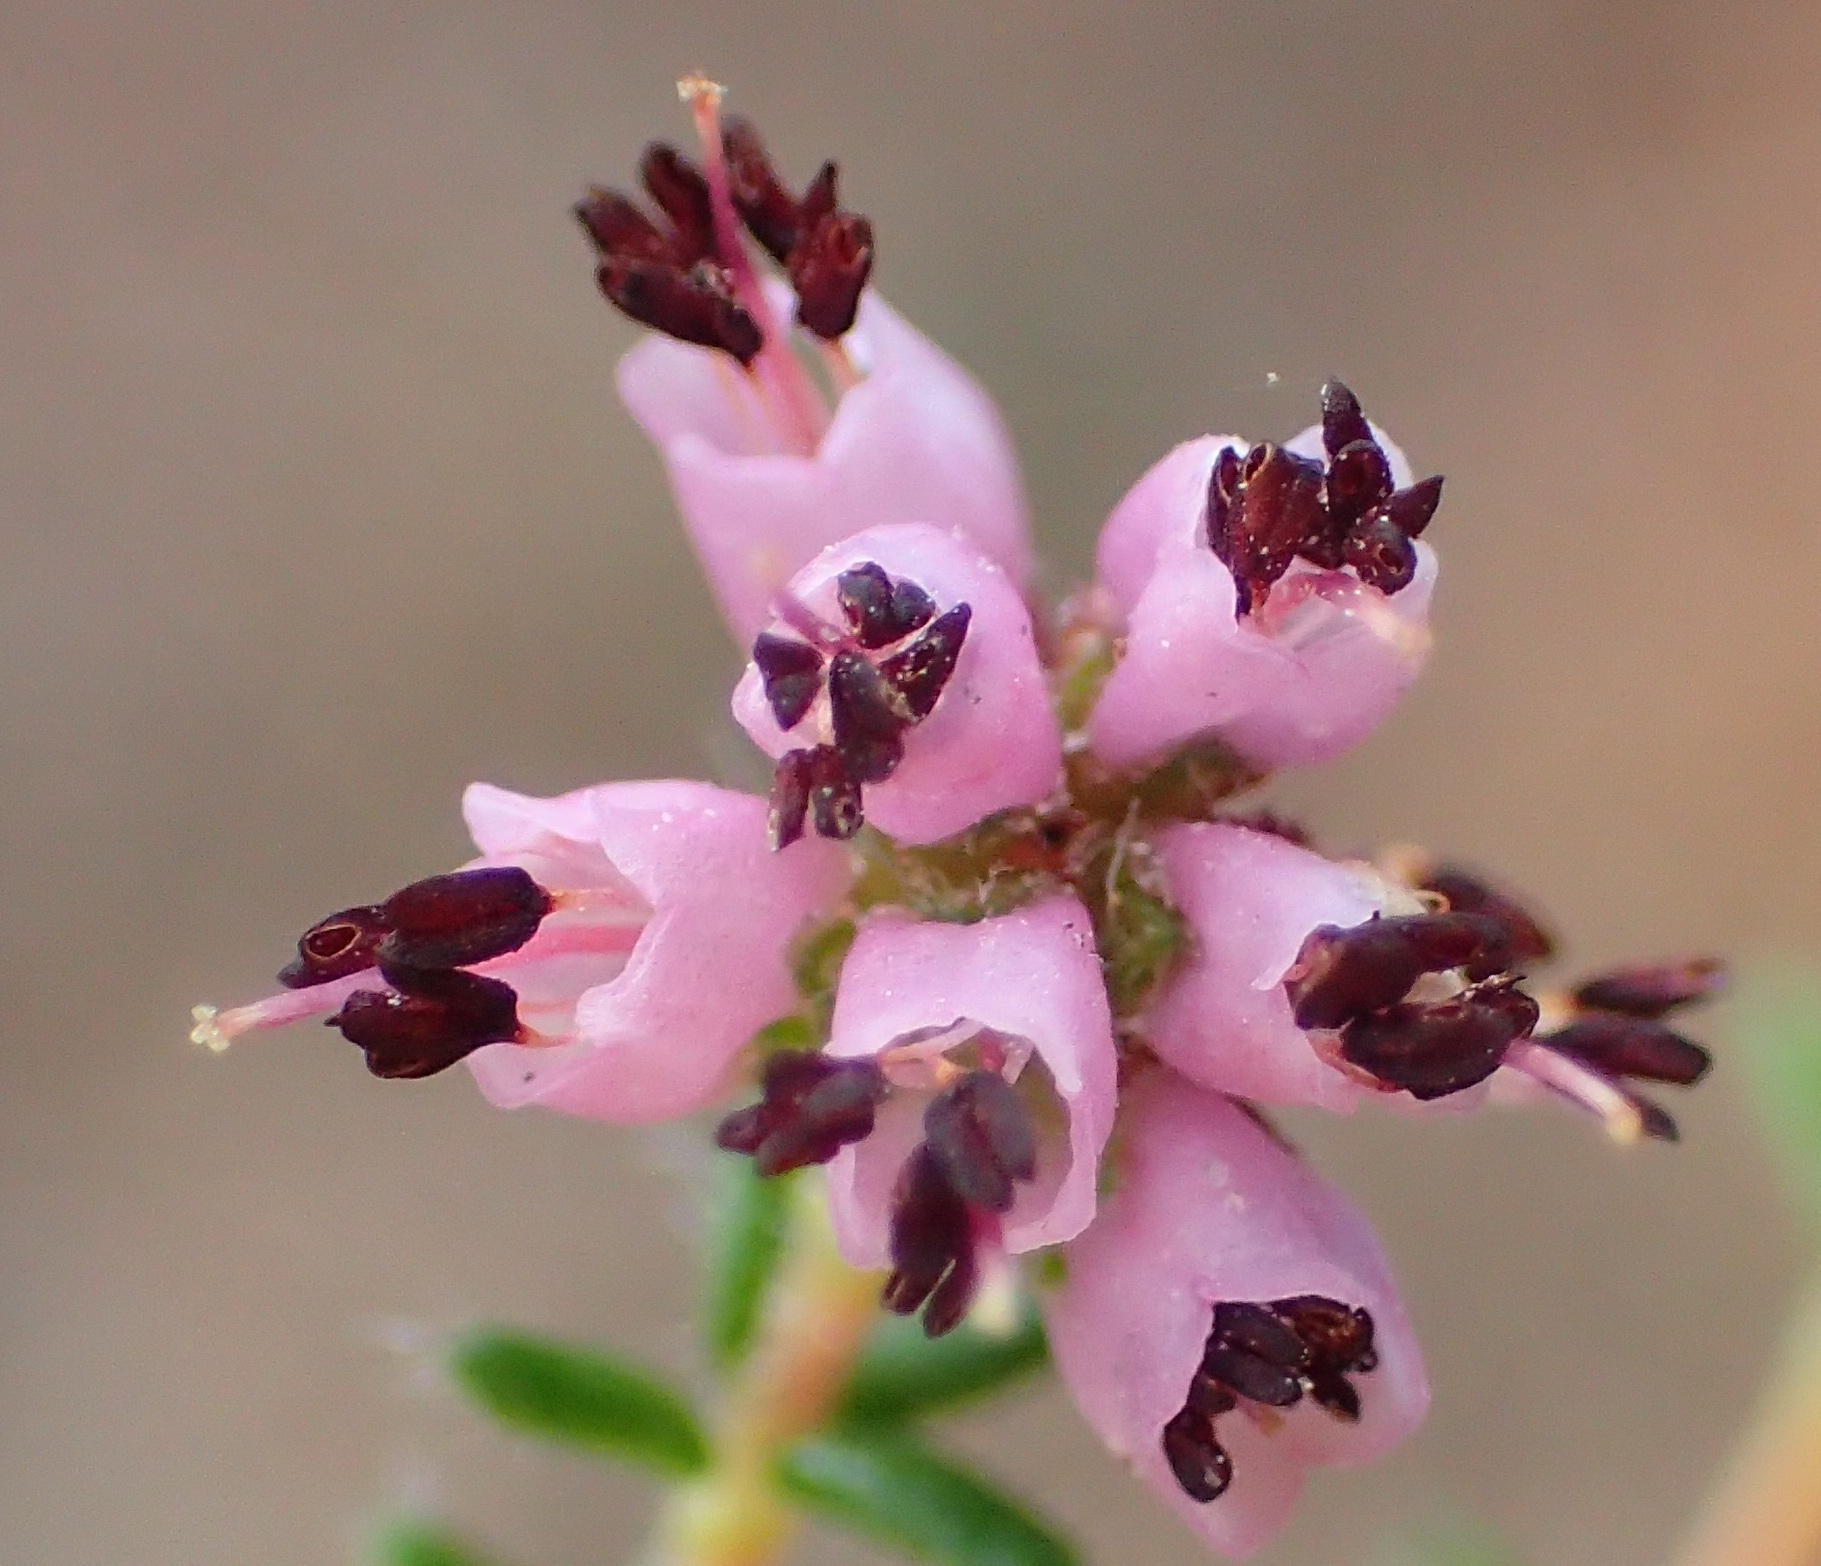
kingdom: Plantae
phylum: Tracheophyta
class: Magnoliopsida
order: Ericales
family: Ericaceae
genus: Erica
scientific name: Erica radicans
